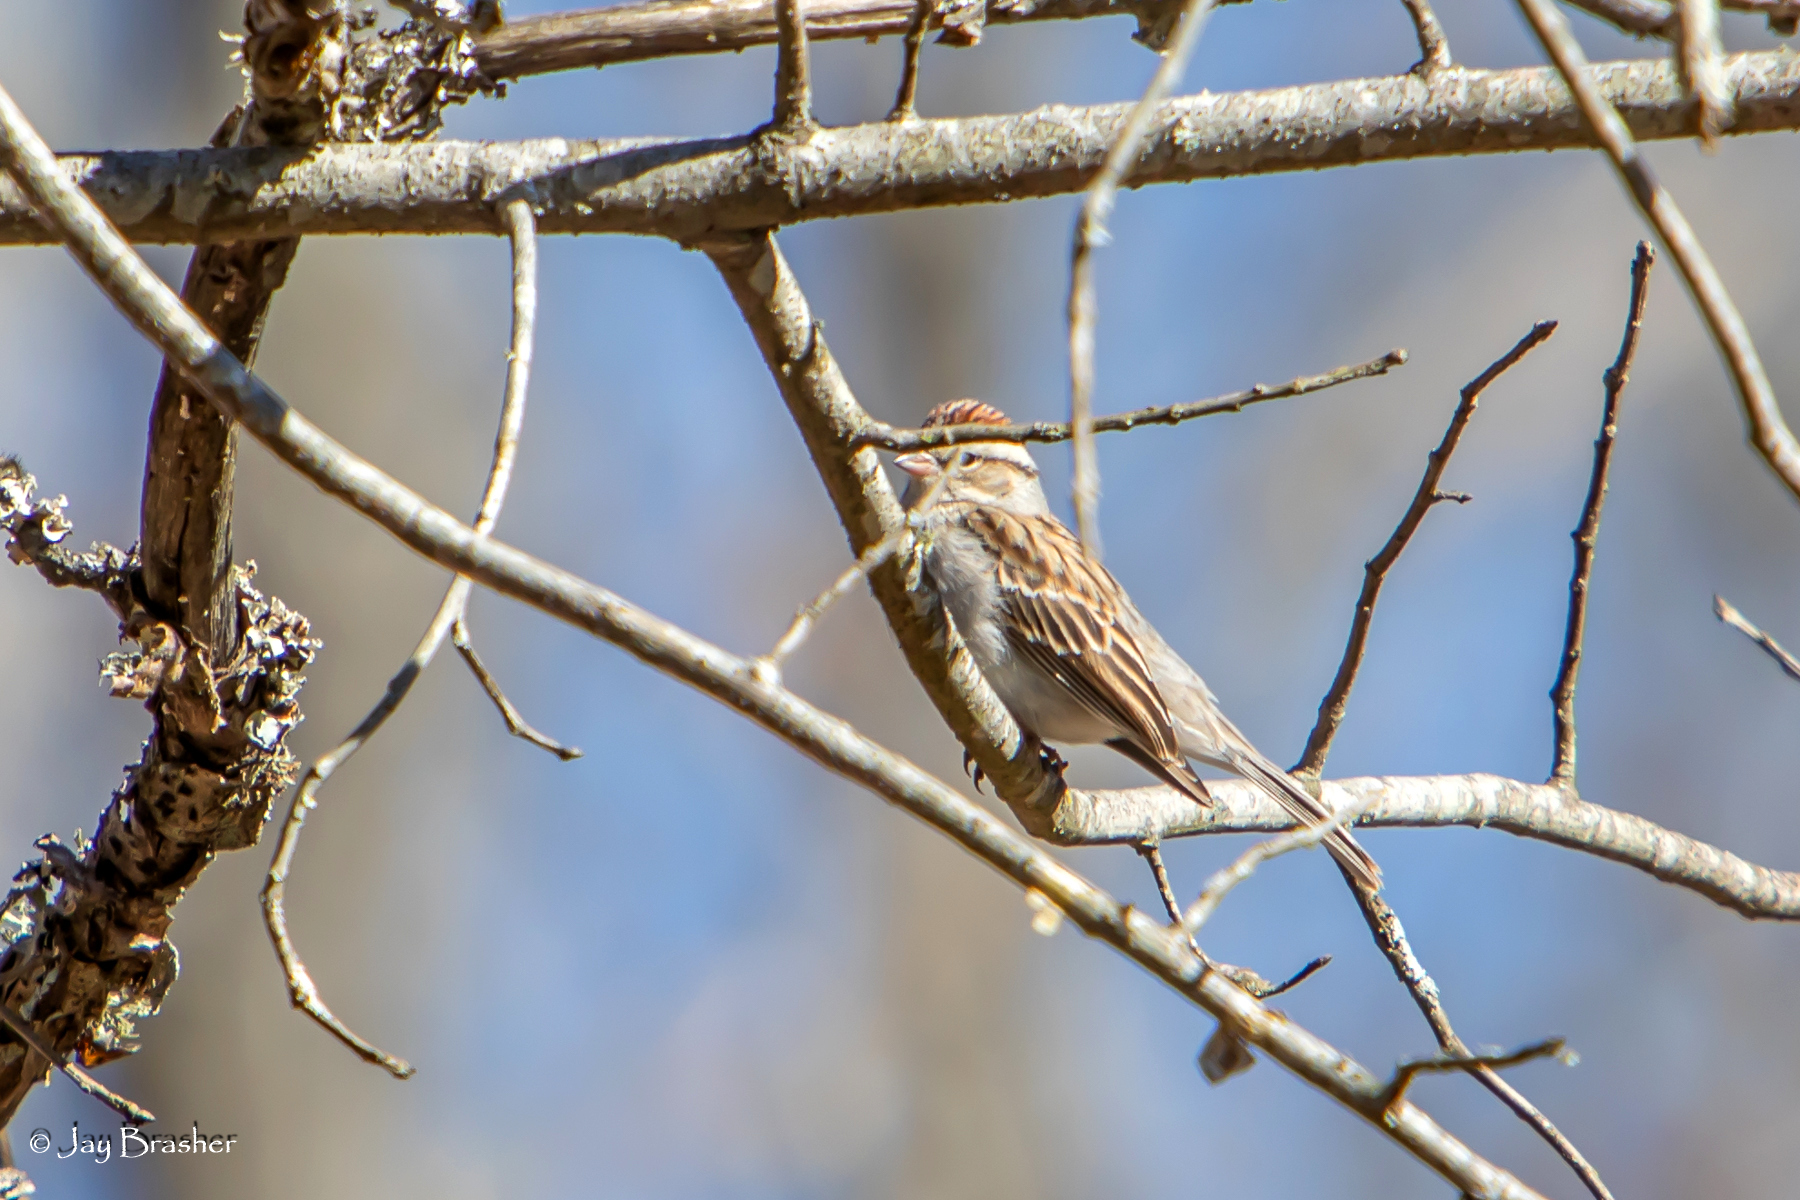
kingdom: Animalia
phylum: Chordata
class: Aves
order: Passeriformes
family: Passerellidae
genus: Spizella
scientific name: Spizella passerina
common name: Chipping sparrow
